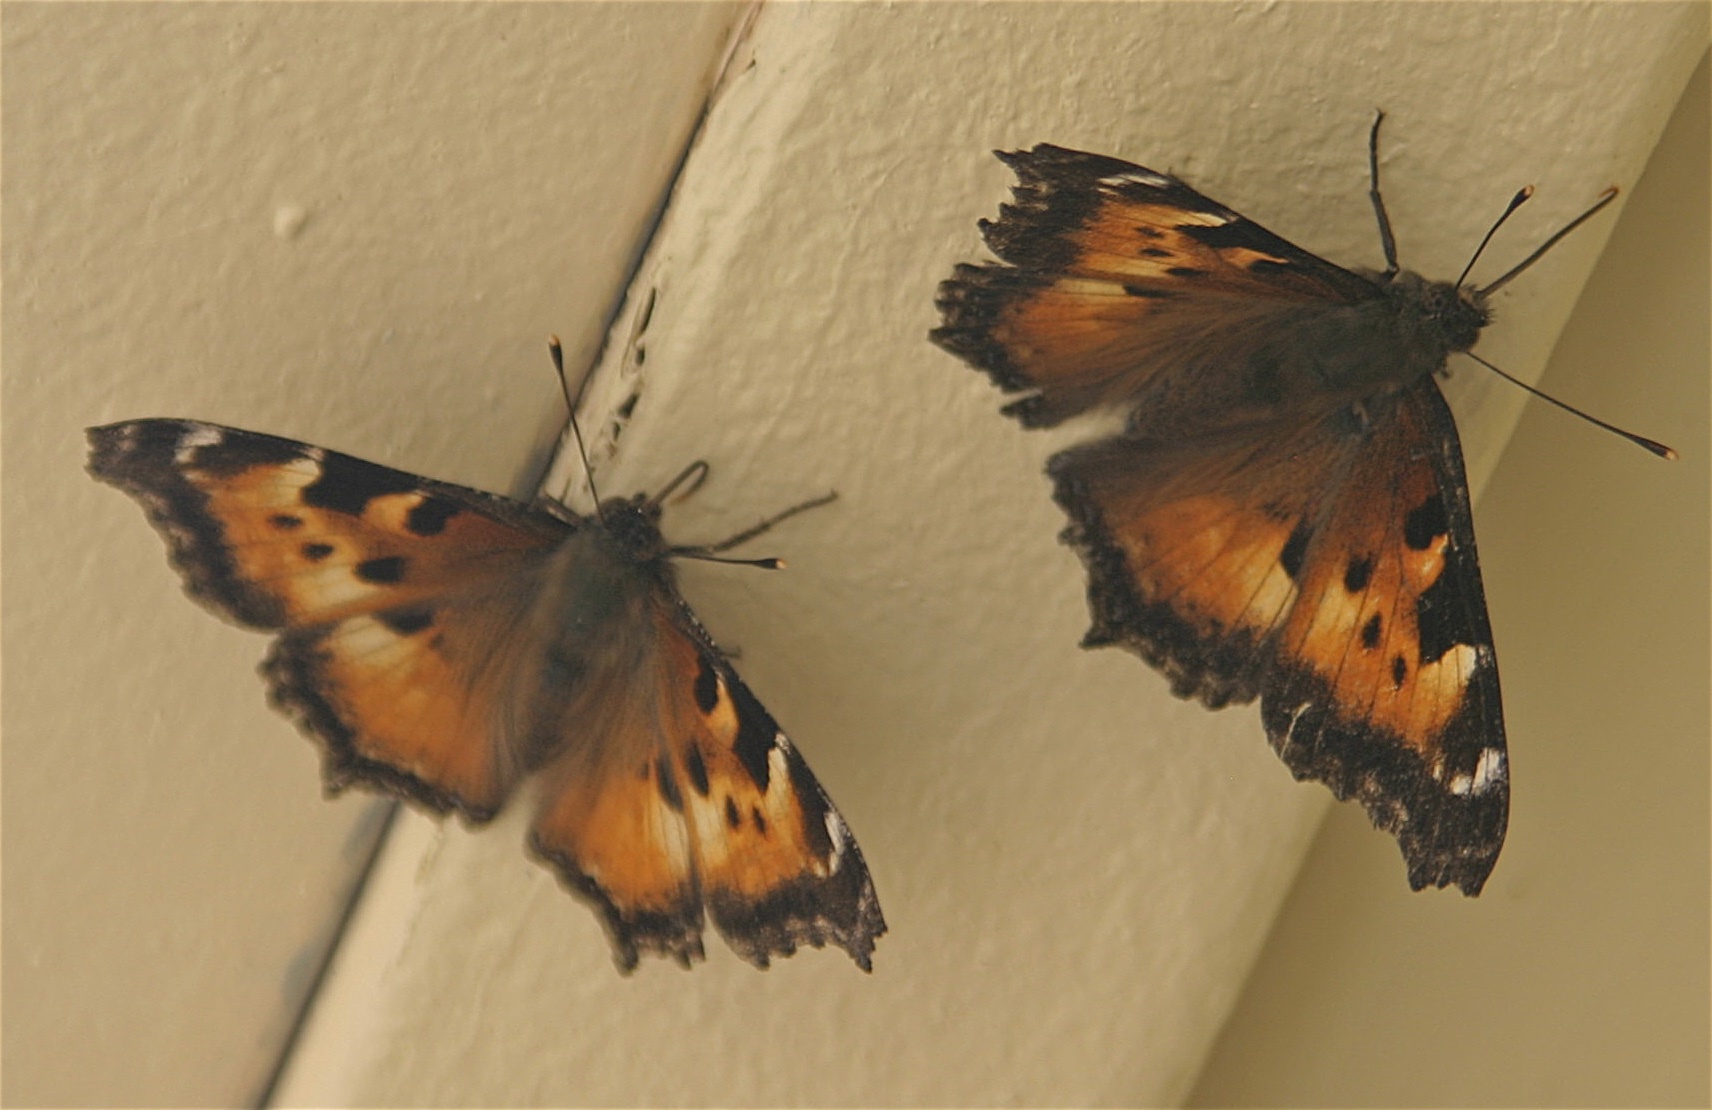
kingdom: Animalia
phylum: Arthropoda
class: Insecta
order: Lepidoptera
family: Nymphalidae
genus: Nymphalis
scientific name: Nymphalis californica
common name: California tortoiseshell
